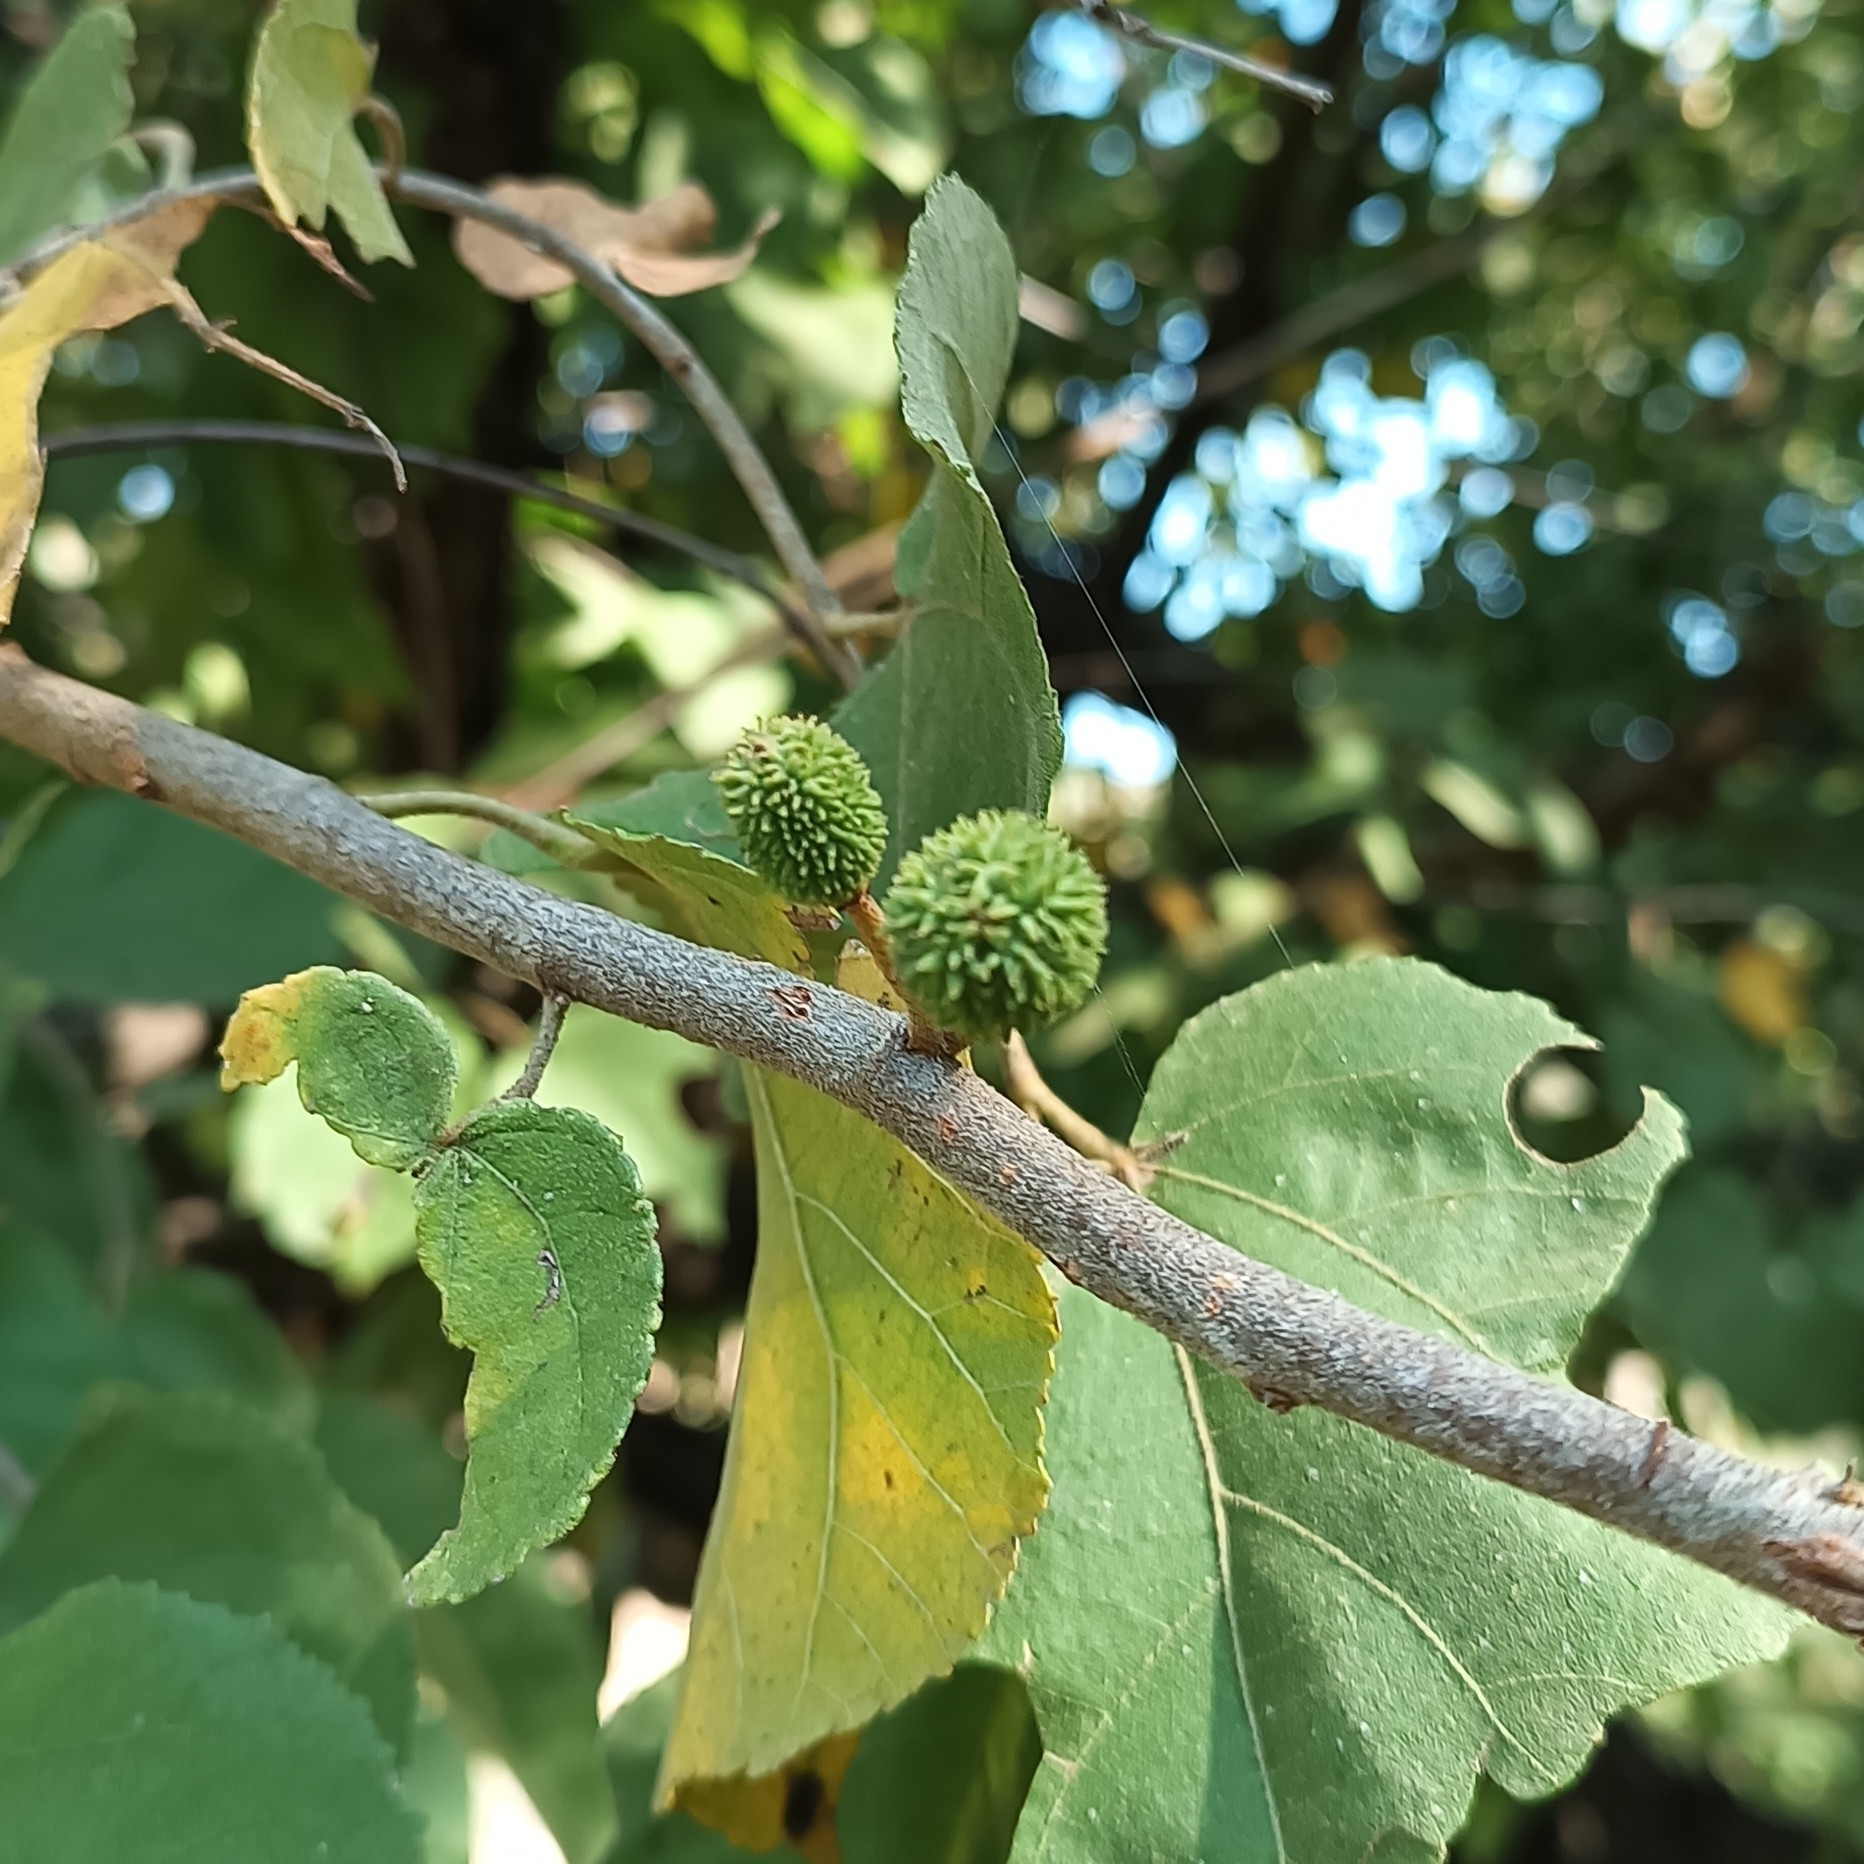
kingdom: Plantae
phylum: Tracheophyta
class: Magnoliopsida
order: Malvales
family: Malvaceae
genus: Guazuma
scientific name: Guazuma ulmifolia
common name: Bastard-cedar
